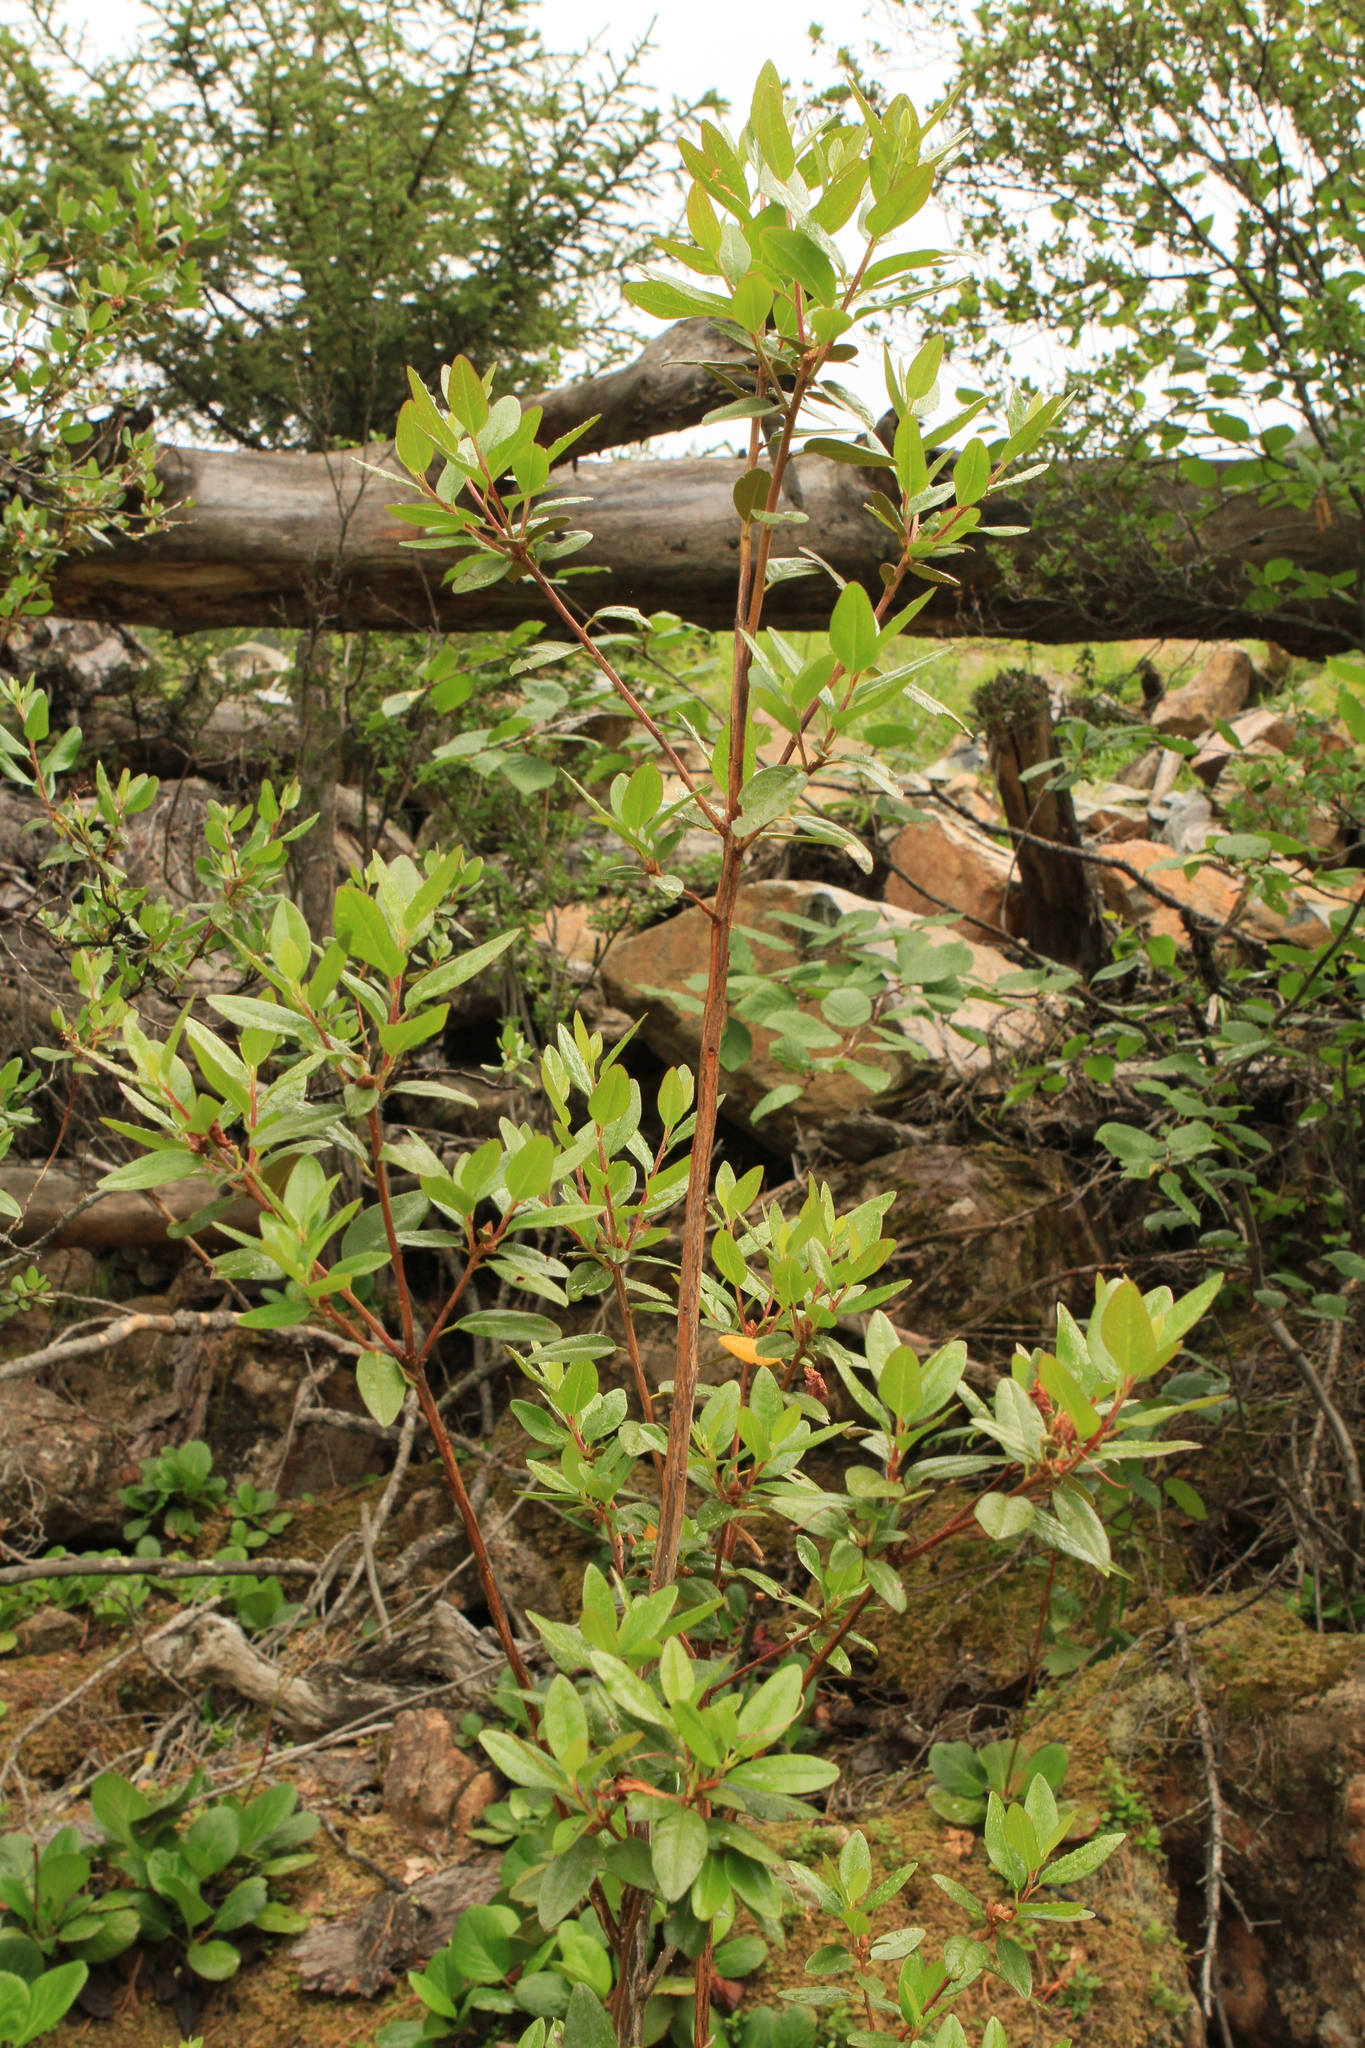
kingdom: Plantae
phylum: Tracheophyta
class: Magnoliopsida
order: Ericales
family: Ericaceae
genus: Rhododendron
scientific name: Rhododendron dauricum
